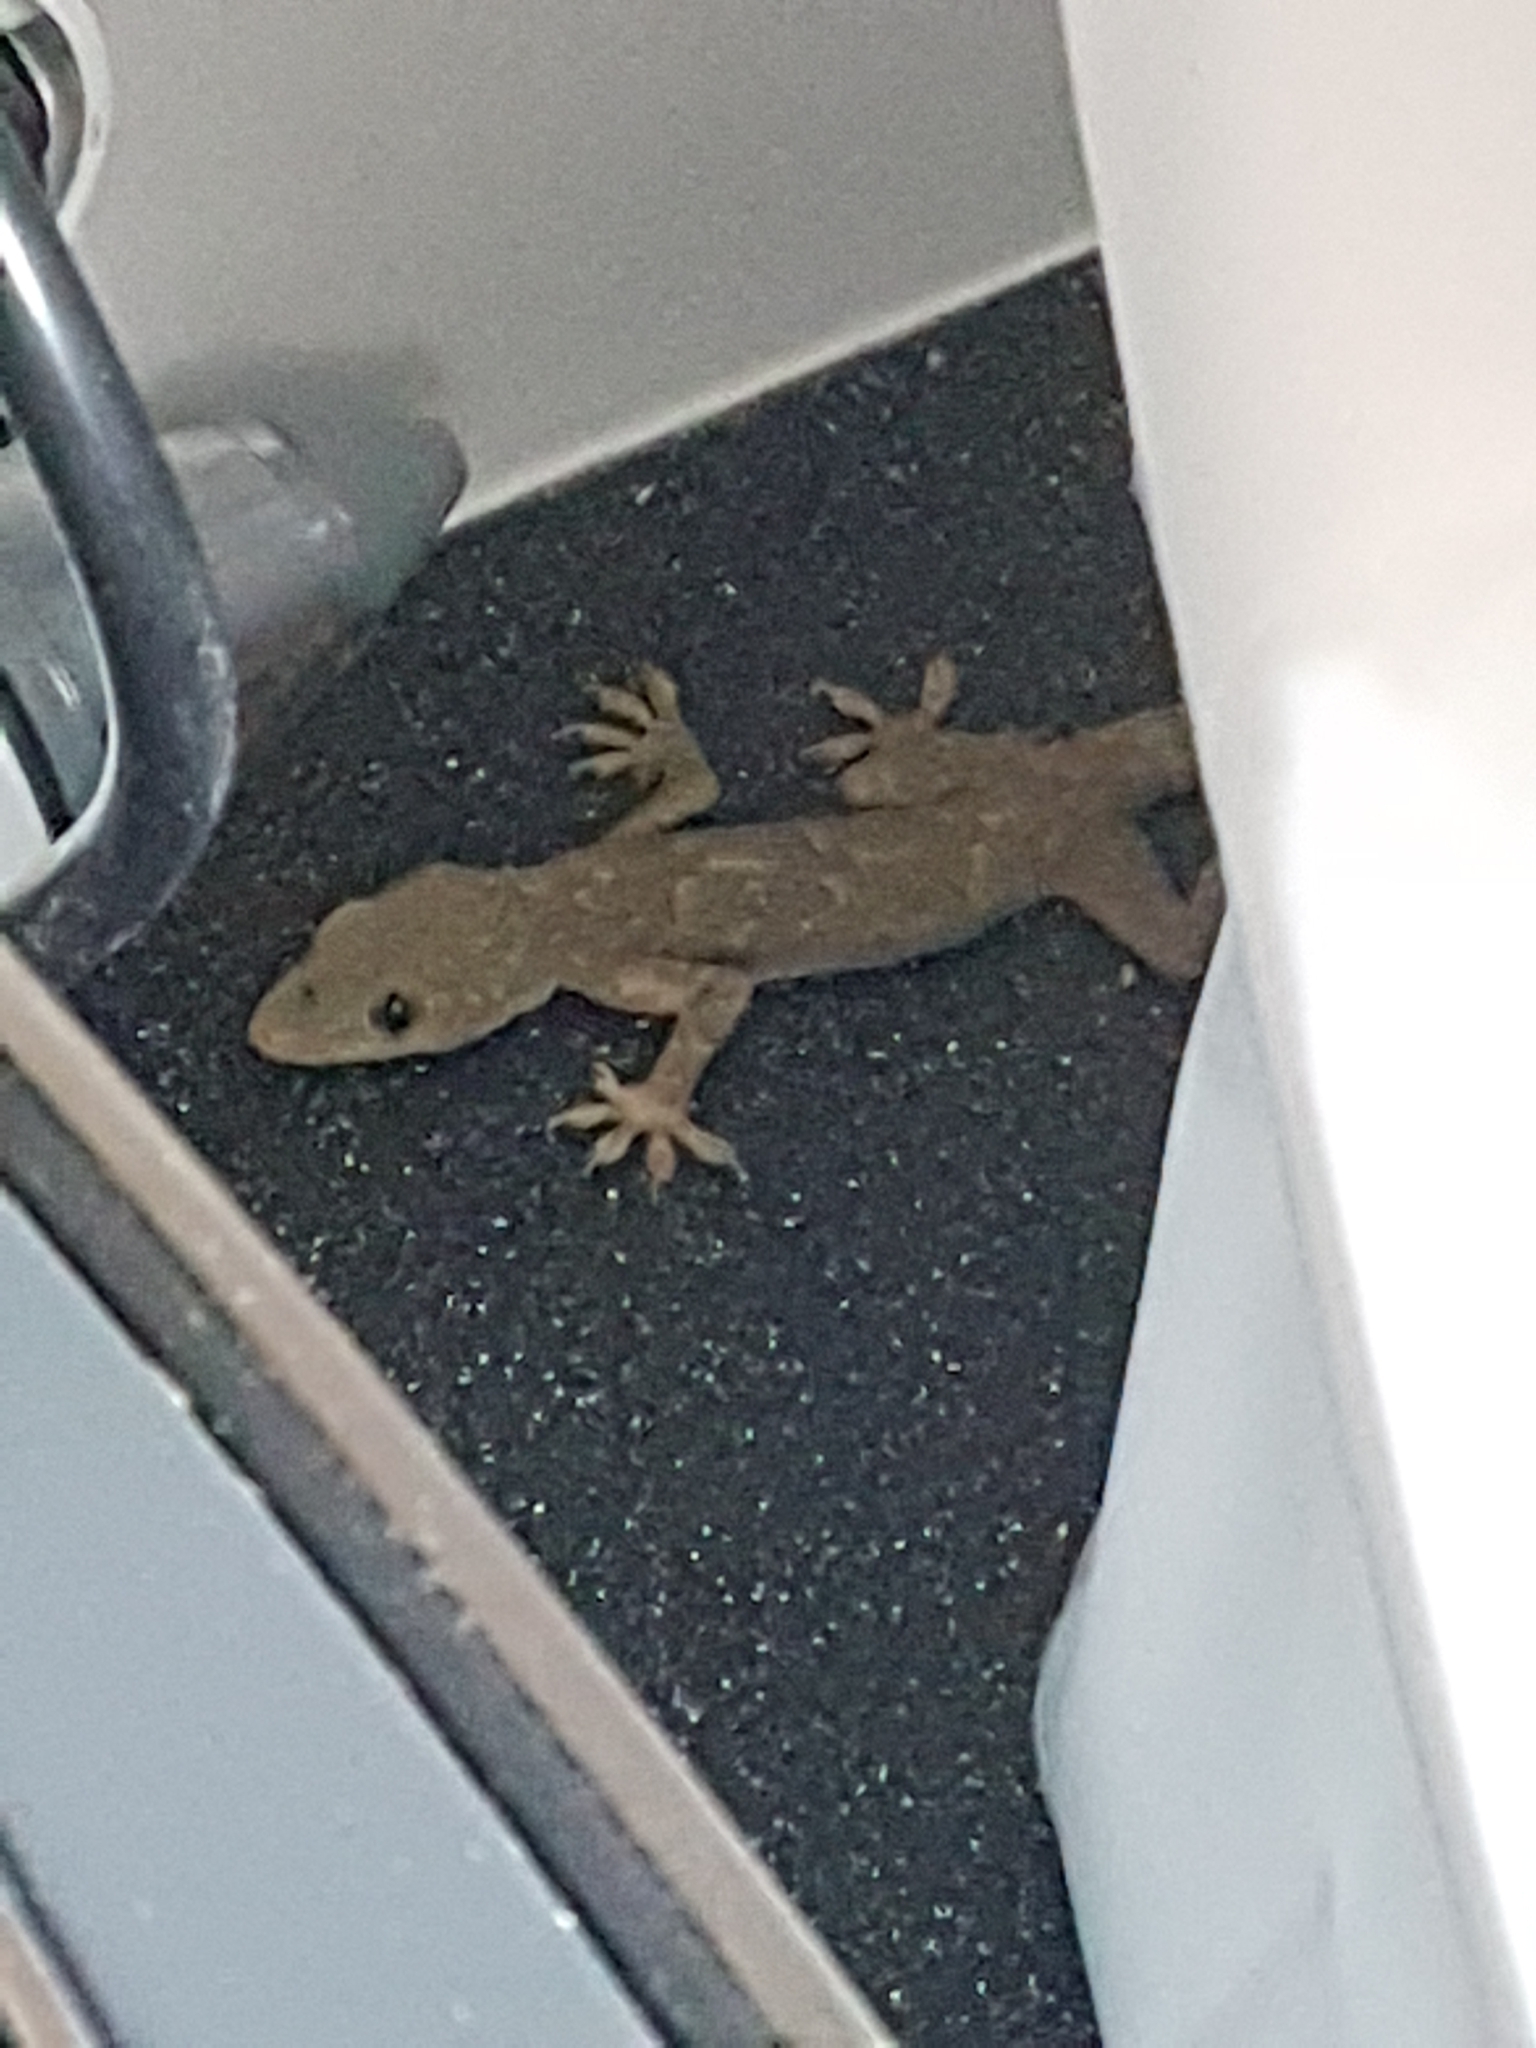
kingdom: Animalia
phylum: Chordata
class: Squamata
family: Gekkonidae
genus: Hemidactylus
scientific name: Hemidactylus flaviviridis
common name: Northern house gecko
